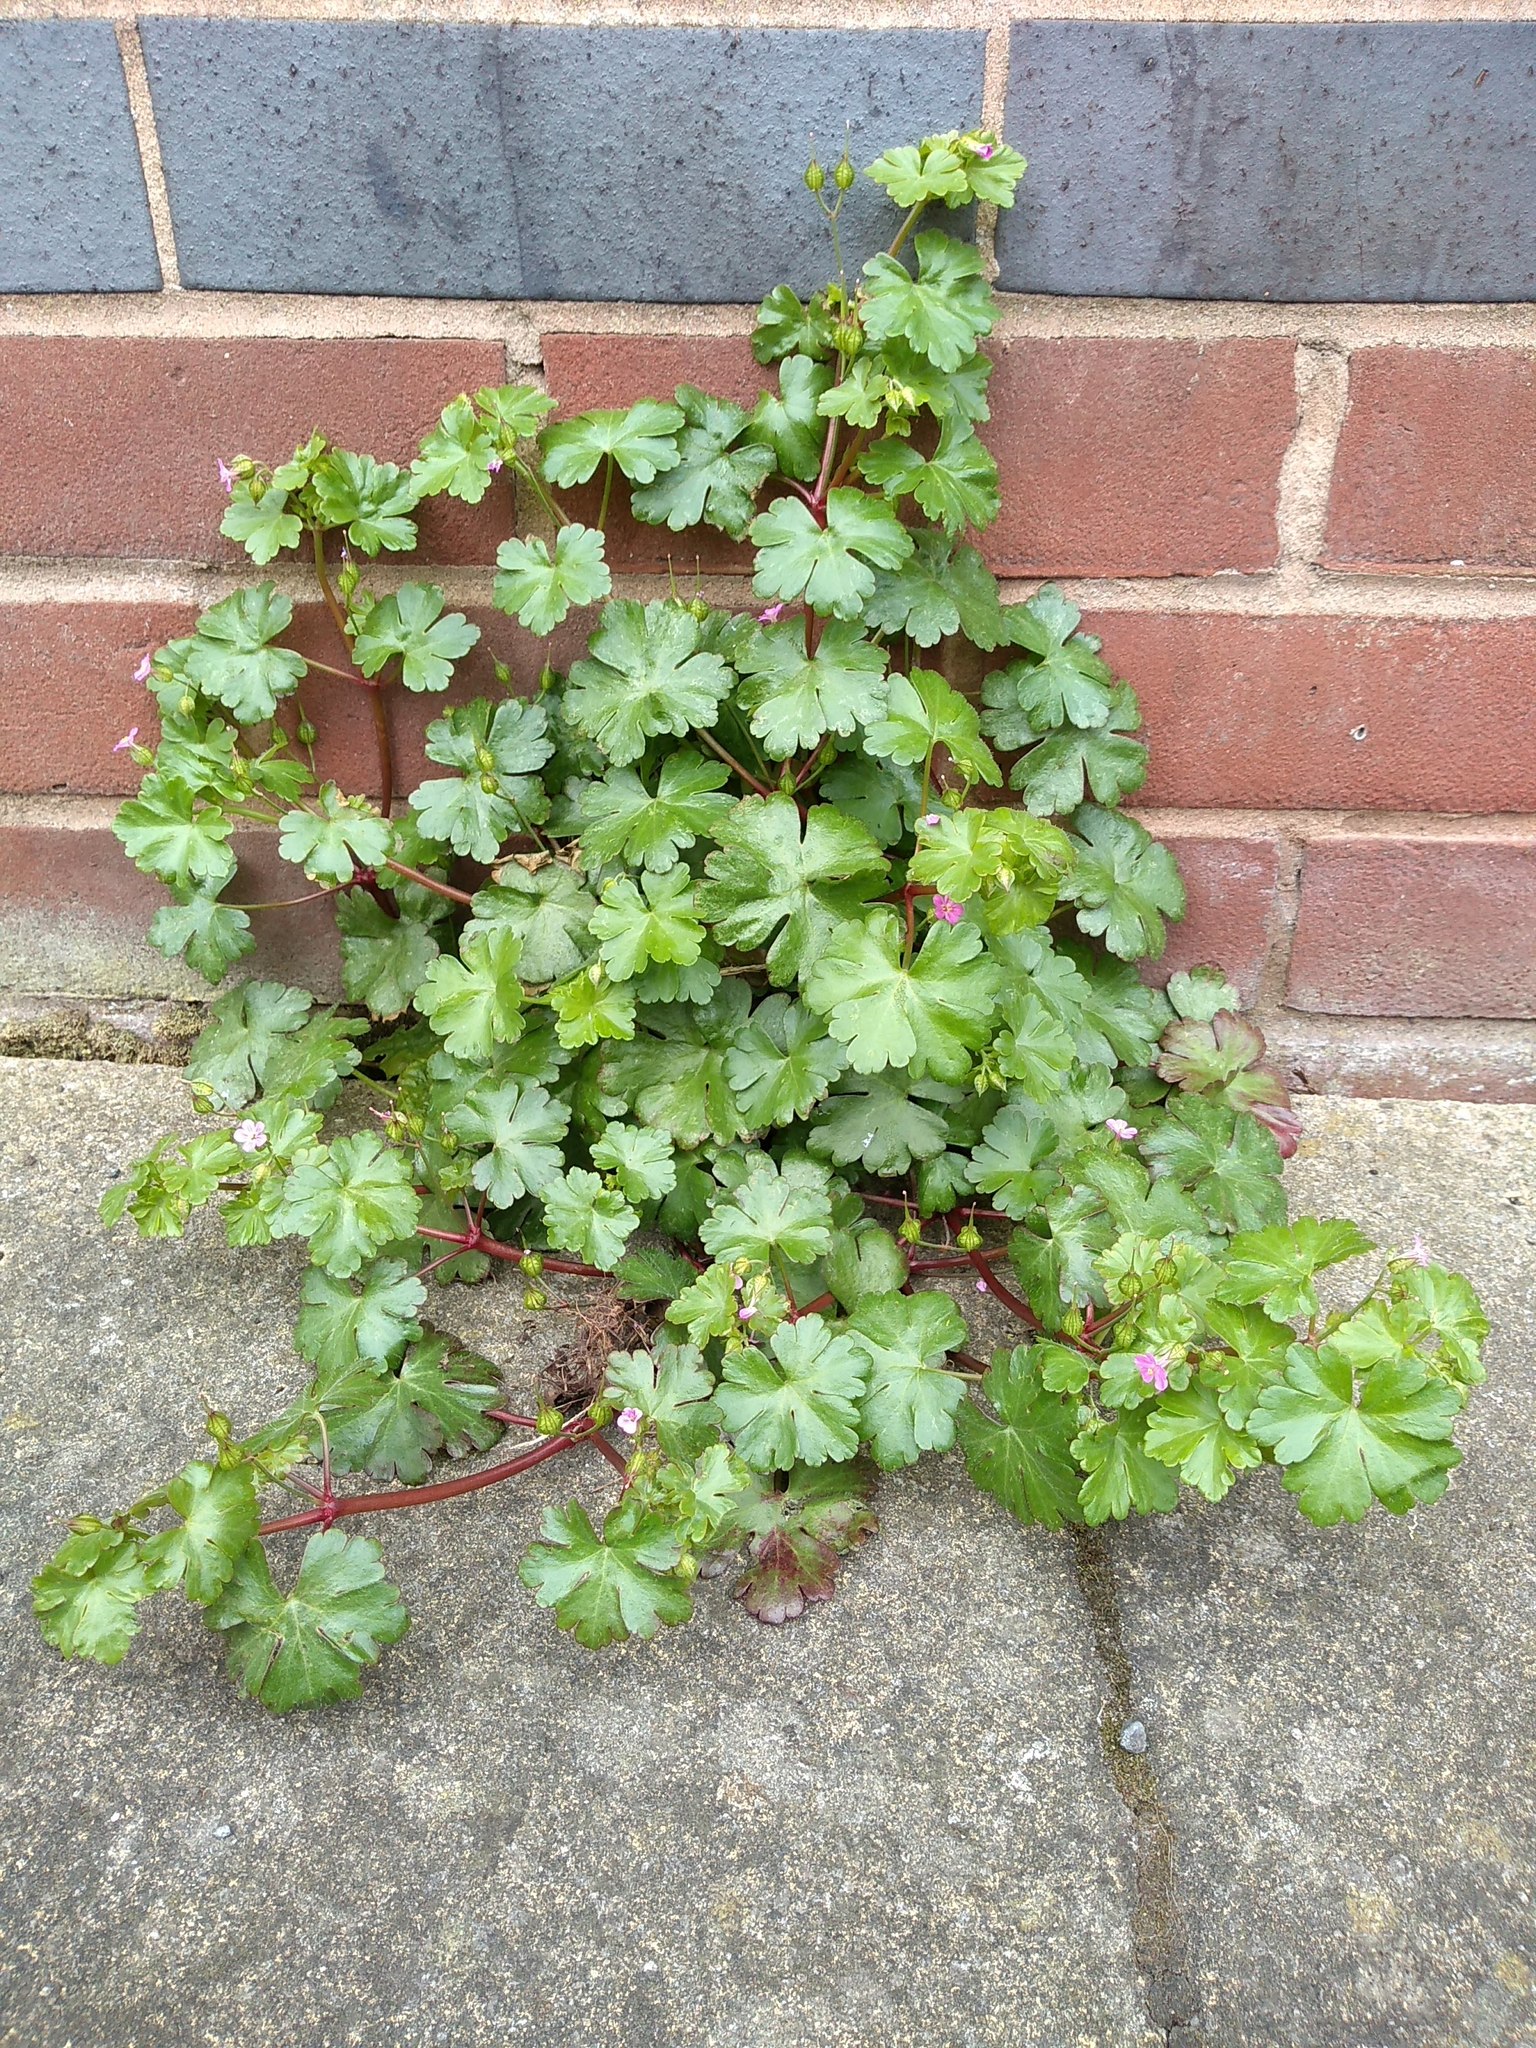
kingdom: Plantae
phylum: Tracheophyta
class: Magnoliopsida
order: Geraniales
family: Geraniaceae
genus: Geranium
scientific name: Geranium lucidum
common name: Shining crane's-bill
